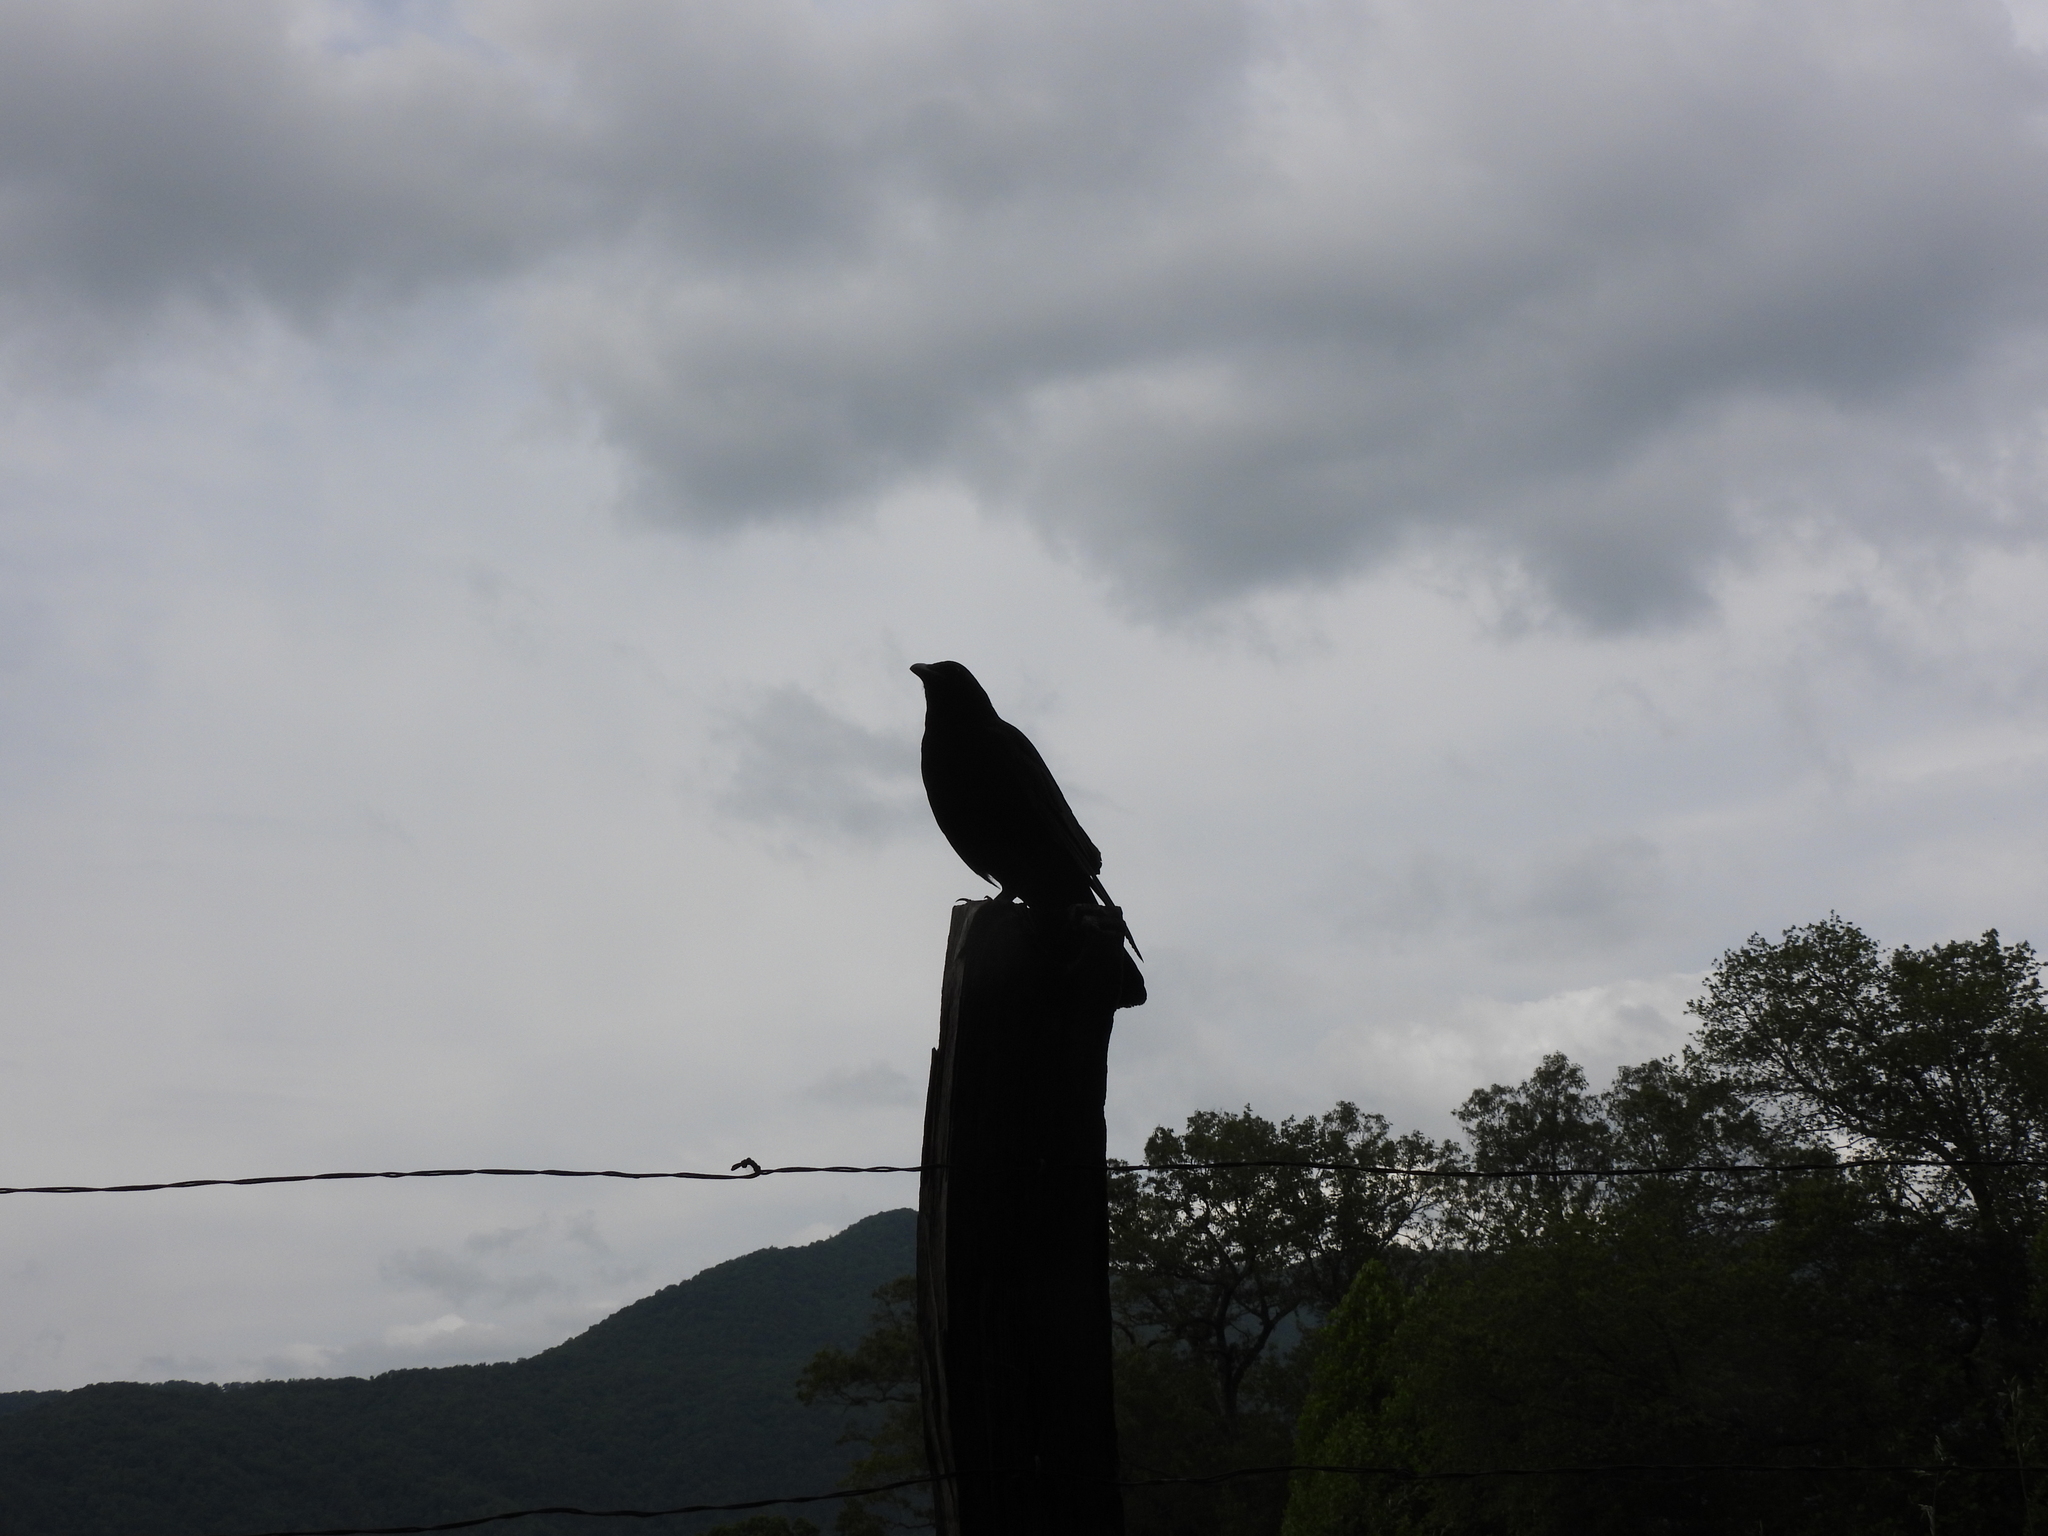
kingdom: Animalia
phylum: Chordata
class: Aves
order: Passeriformes
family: Corvidae
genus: Corvus
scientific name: Corvus brachyrhynchos
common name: American crow
